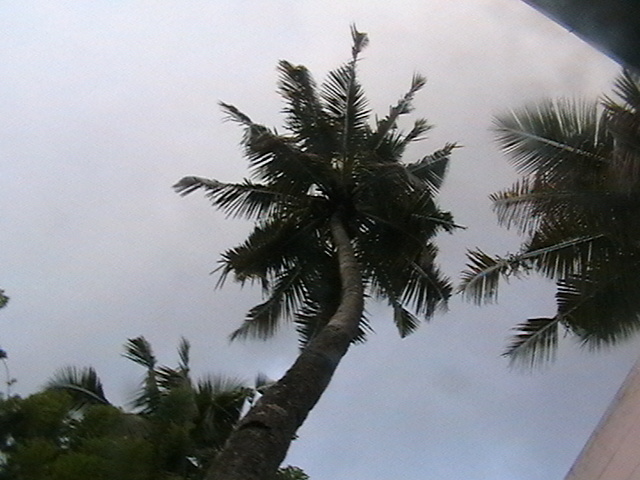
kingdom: Plantae
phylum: Tracheophyta
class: Liliopsida
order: Arecales
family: Arecaceae
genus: Cocos
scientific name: Cocos nucifera
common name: Coconut palm
